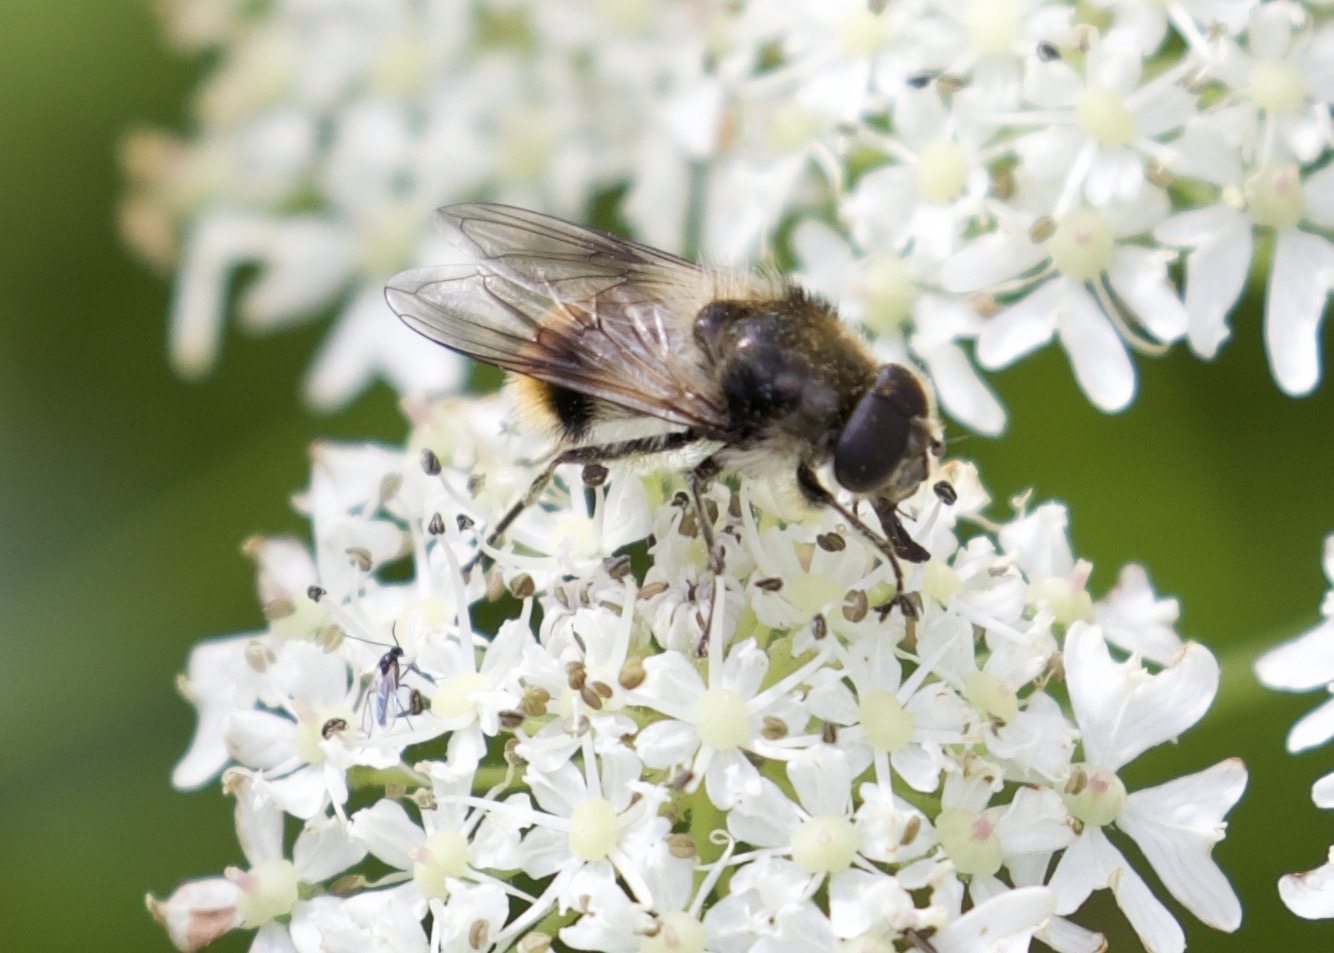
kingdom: Animalia
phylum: Arthropoda
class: Insecta
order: Diptera
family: Syrphidae
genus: Cheilosia
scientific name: Cheilosia illustrata
